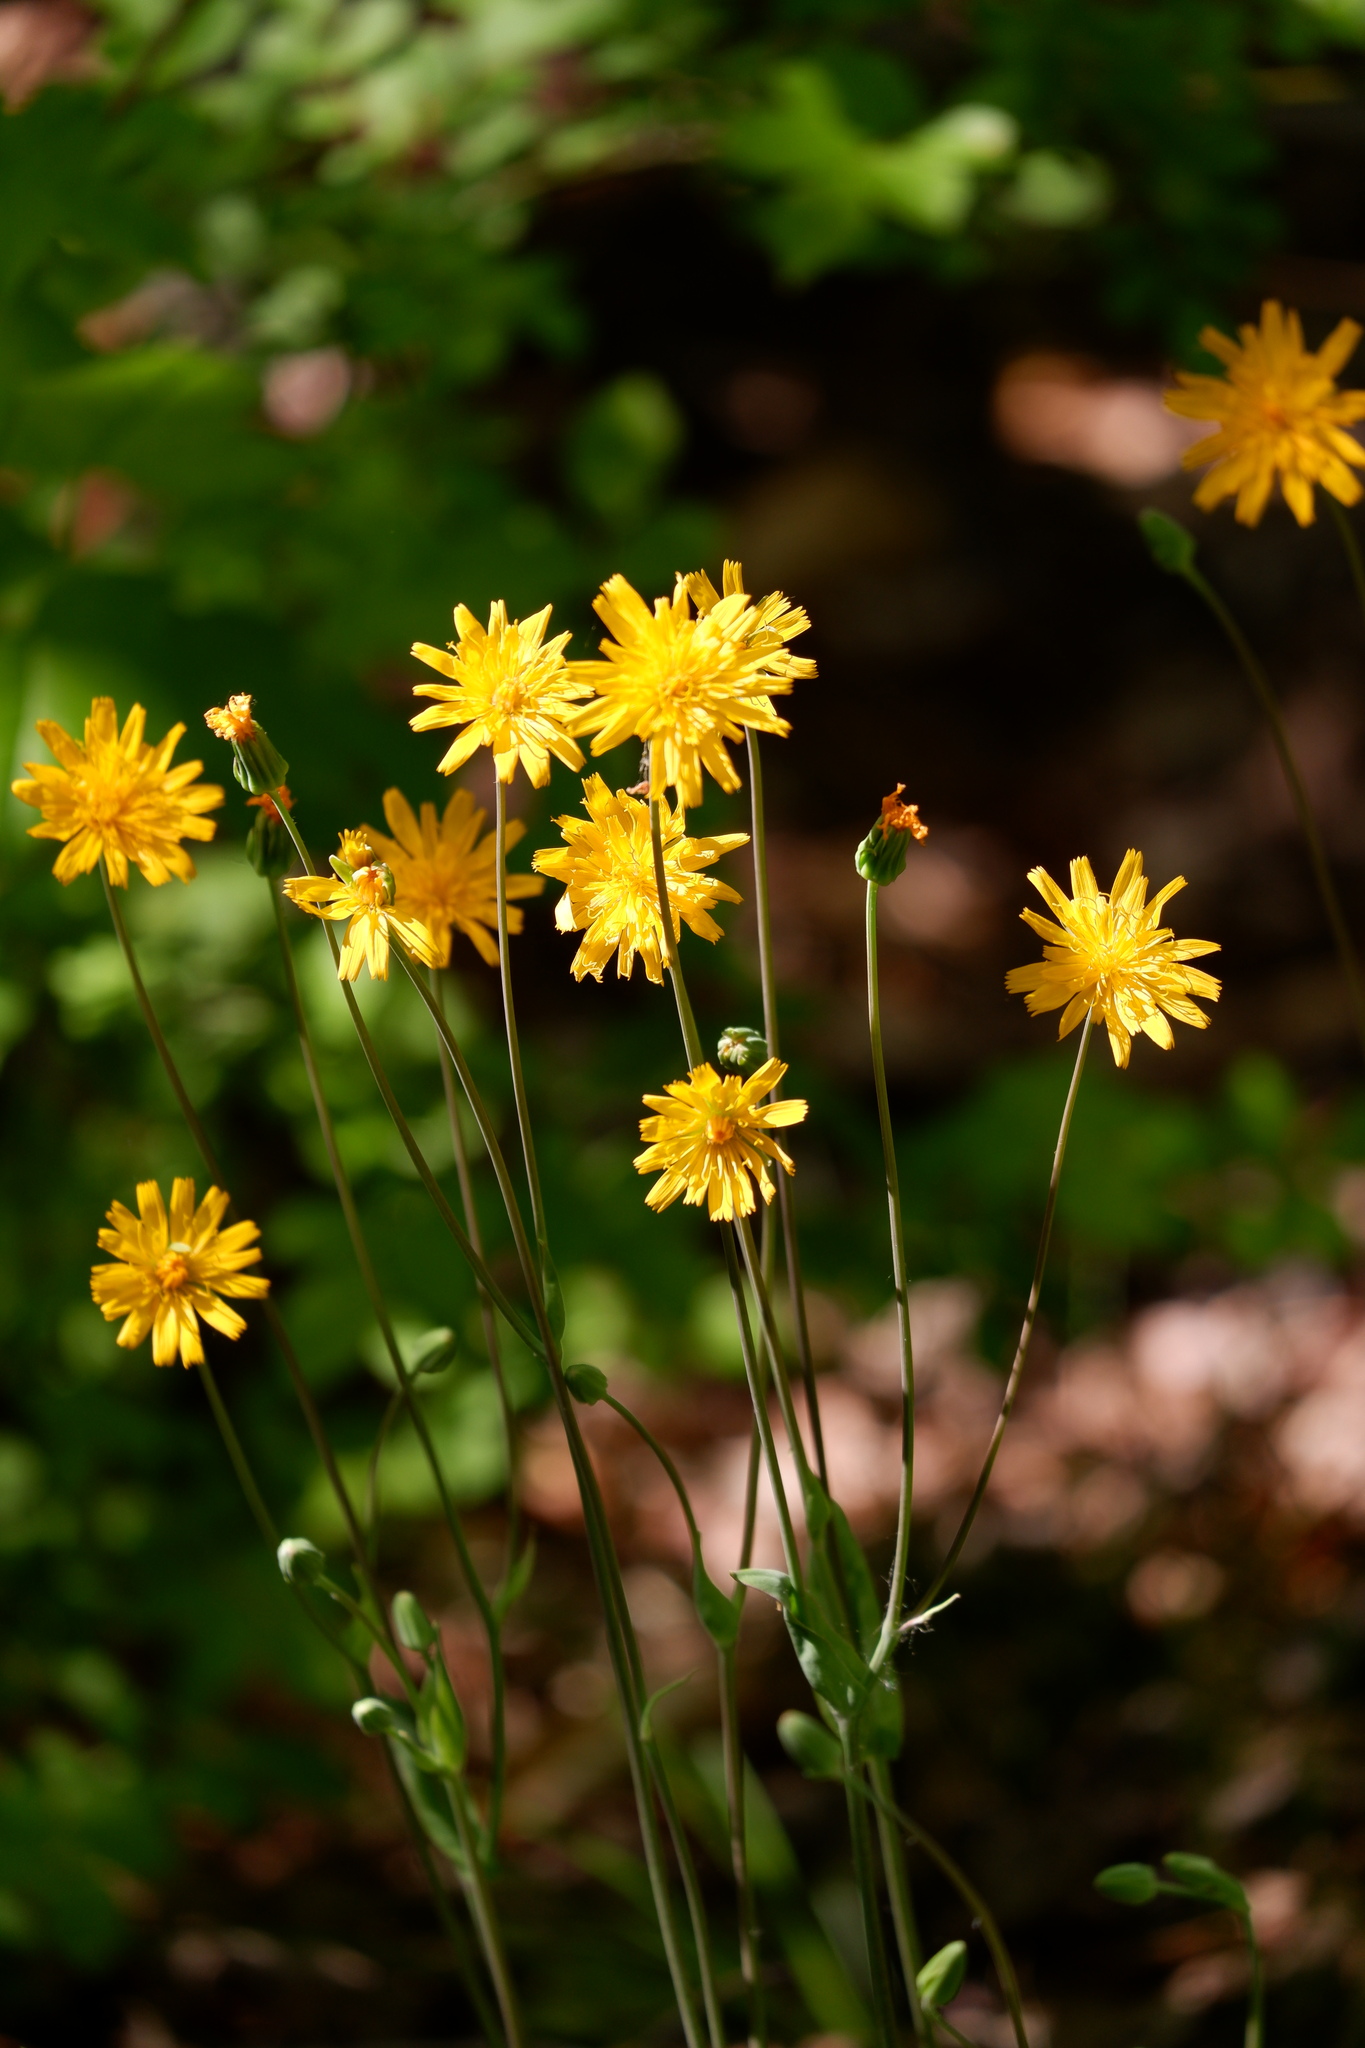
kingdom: Plantae
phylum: Tracheophyta
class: Magnoliopsida
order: Asterales
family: Asteraceae
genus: Krigia
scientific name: Krigia biflora
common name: Orange dwarf-dandelion
